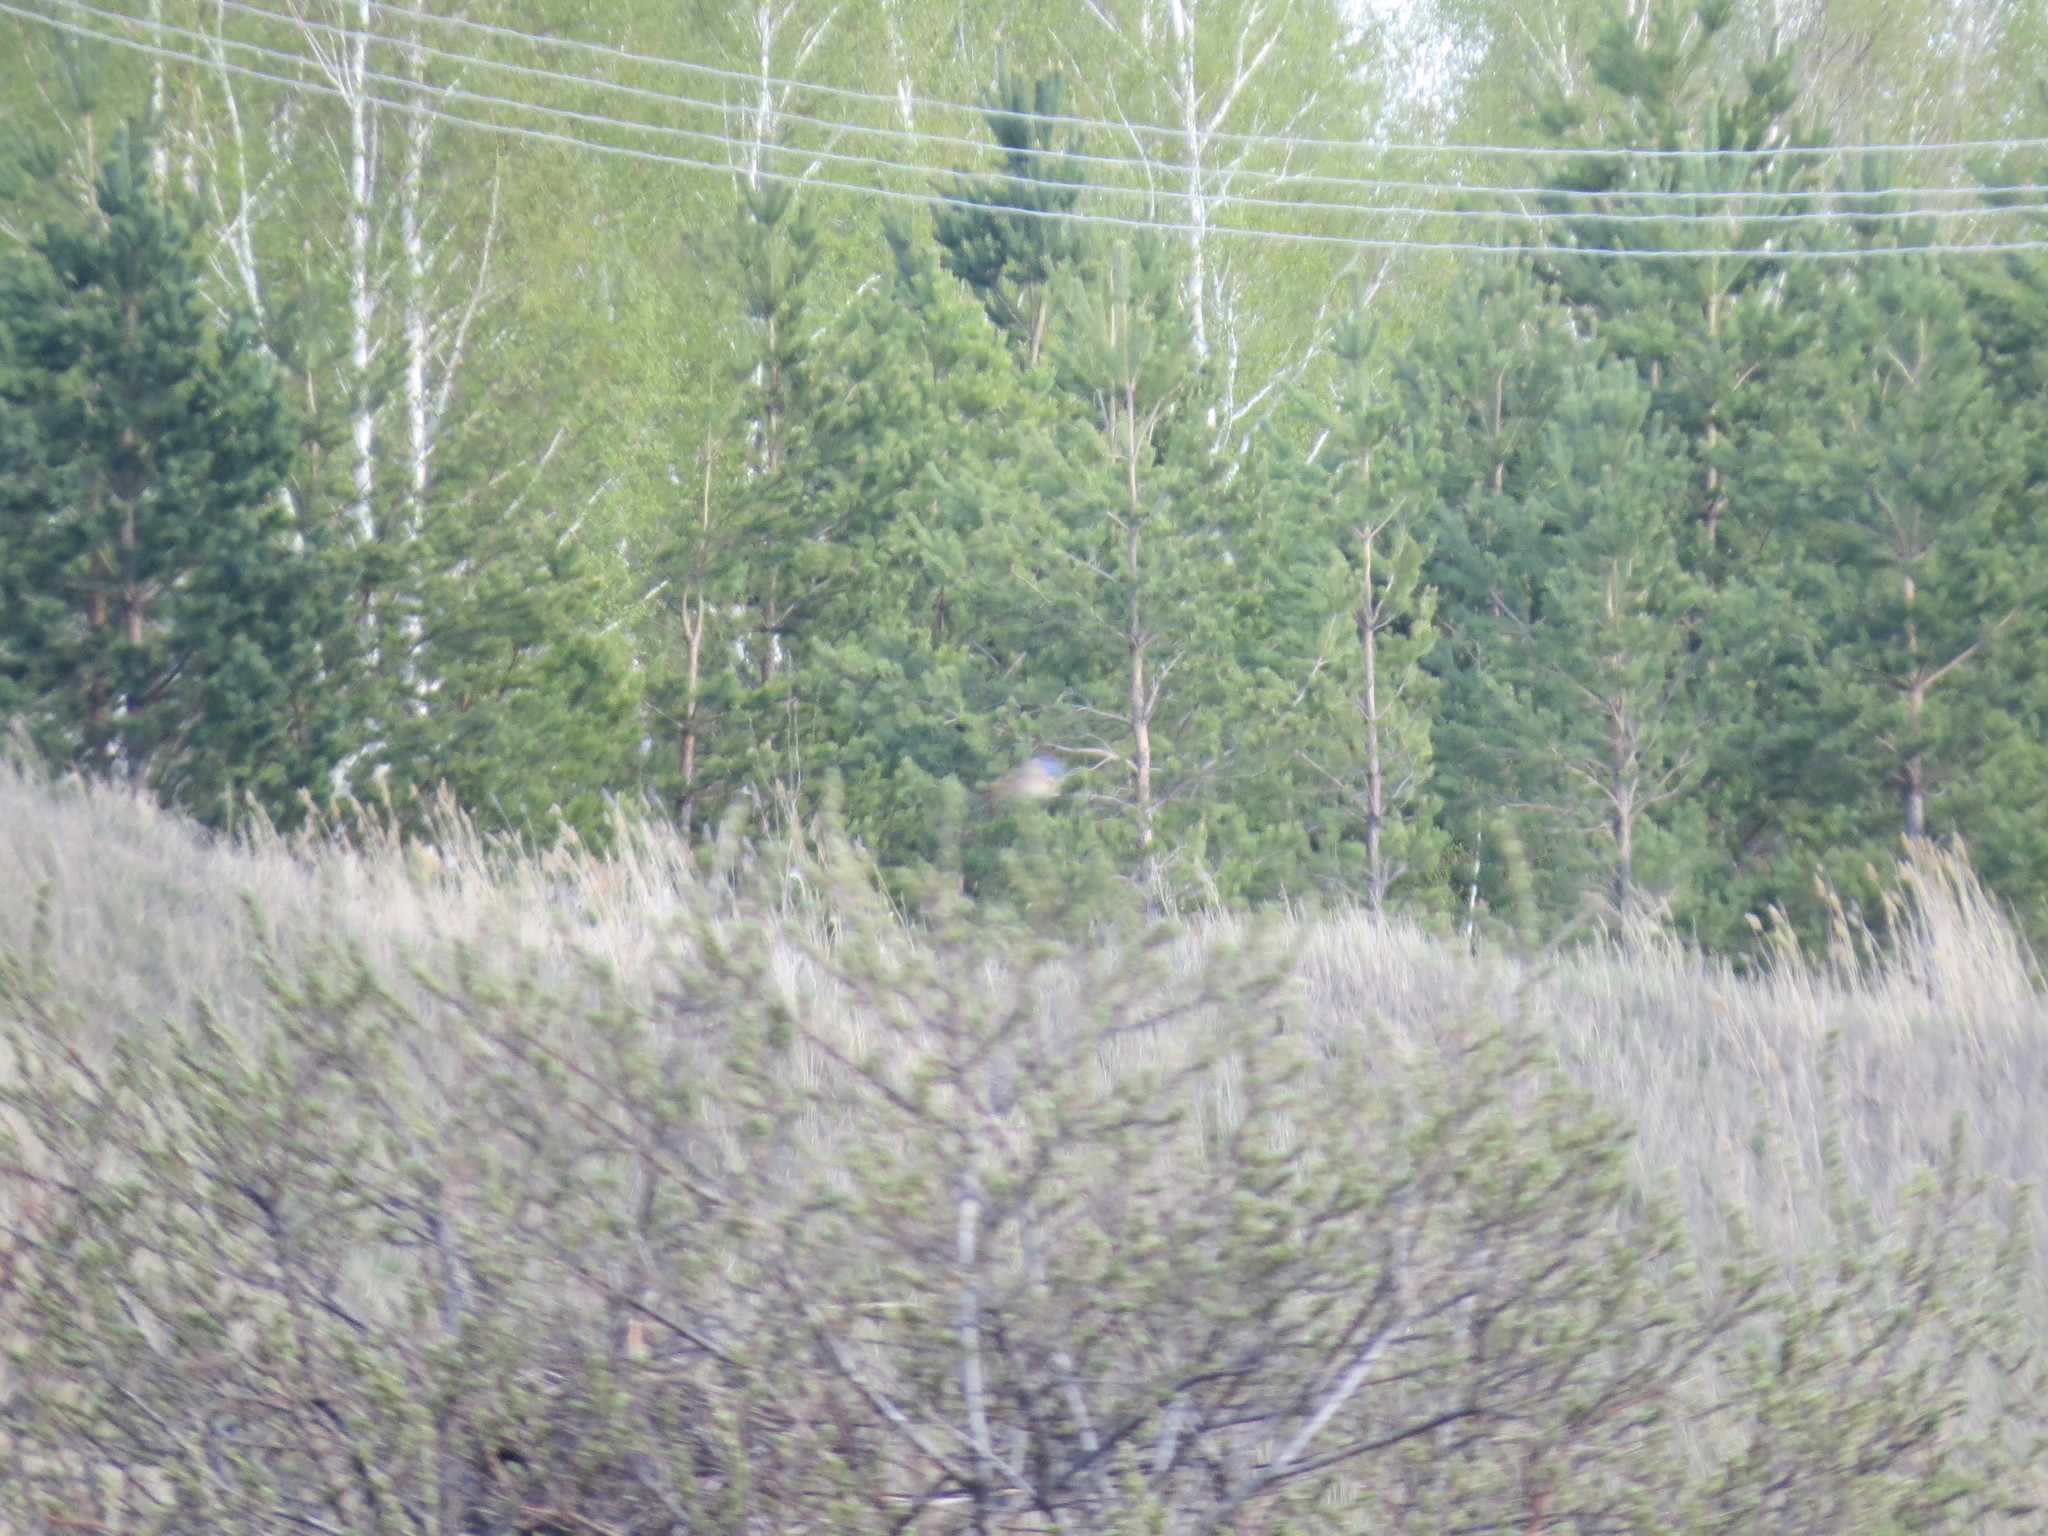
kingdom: Animalia
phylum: Chordata
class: Aves
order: Passeriformes
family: Muscicapidae
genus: Luscinia
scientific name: Luscinia svecica
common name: Bluethroat
